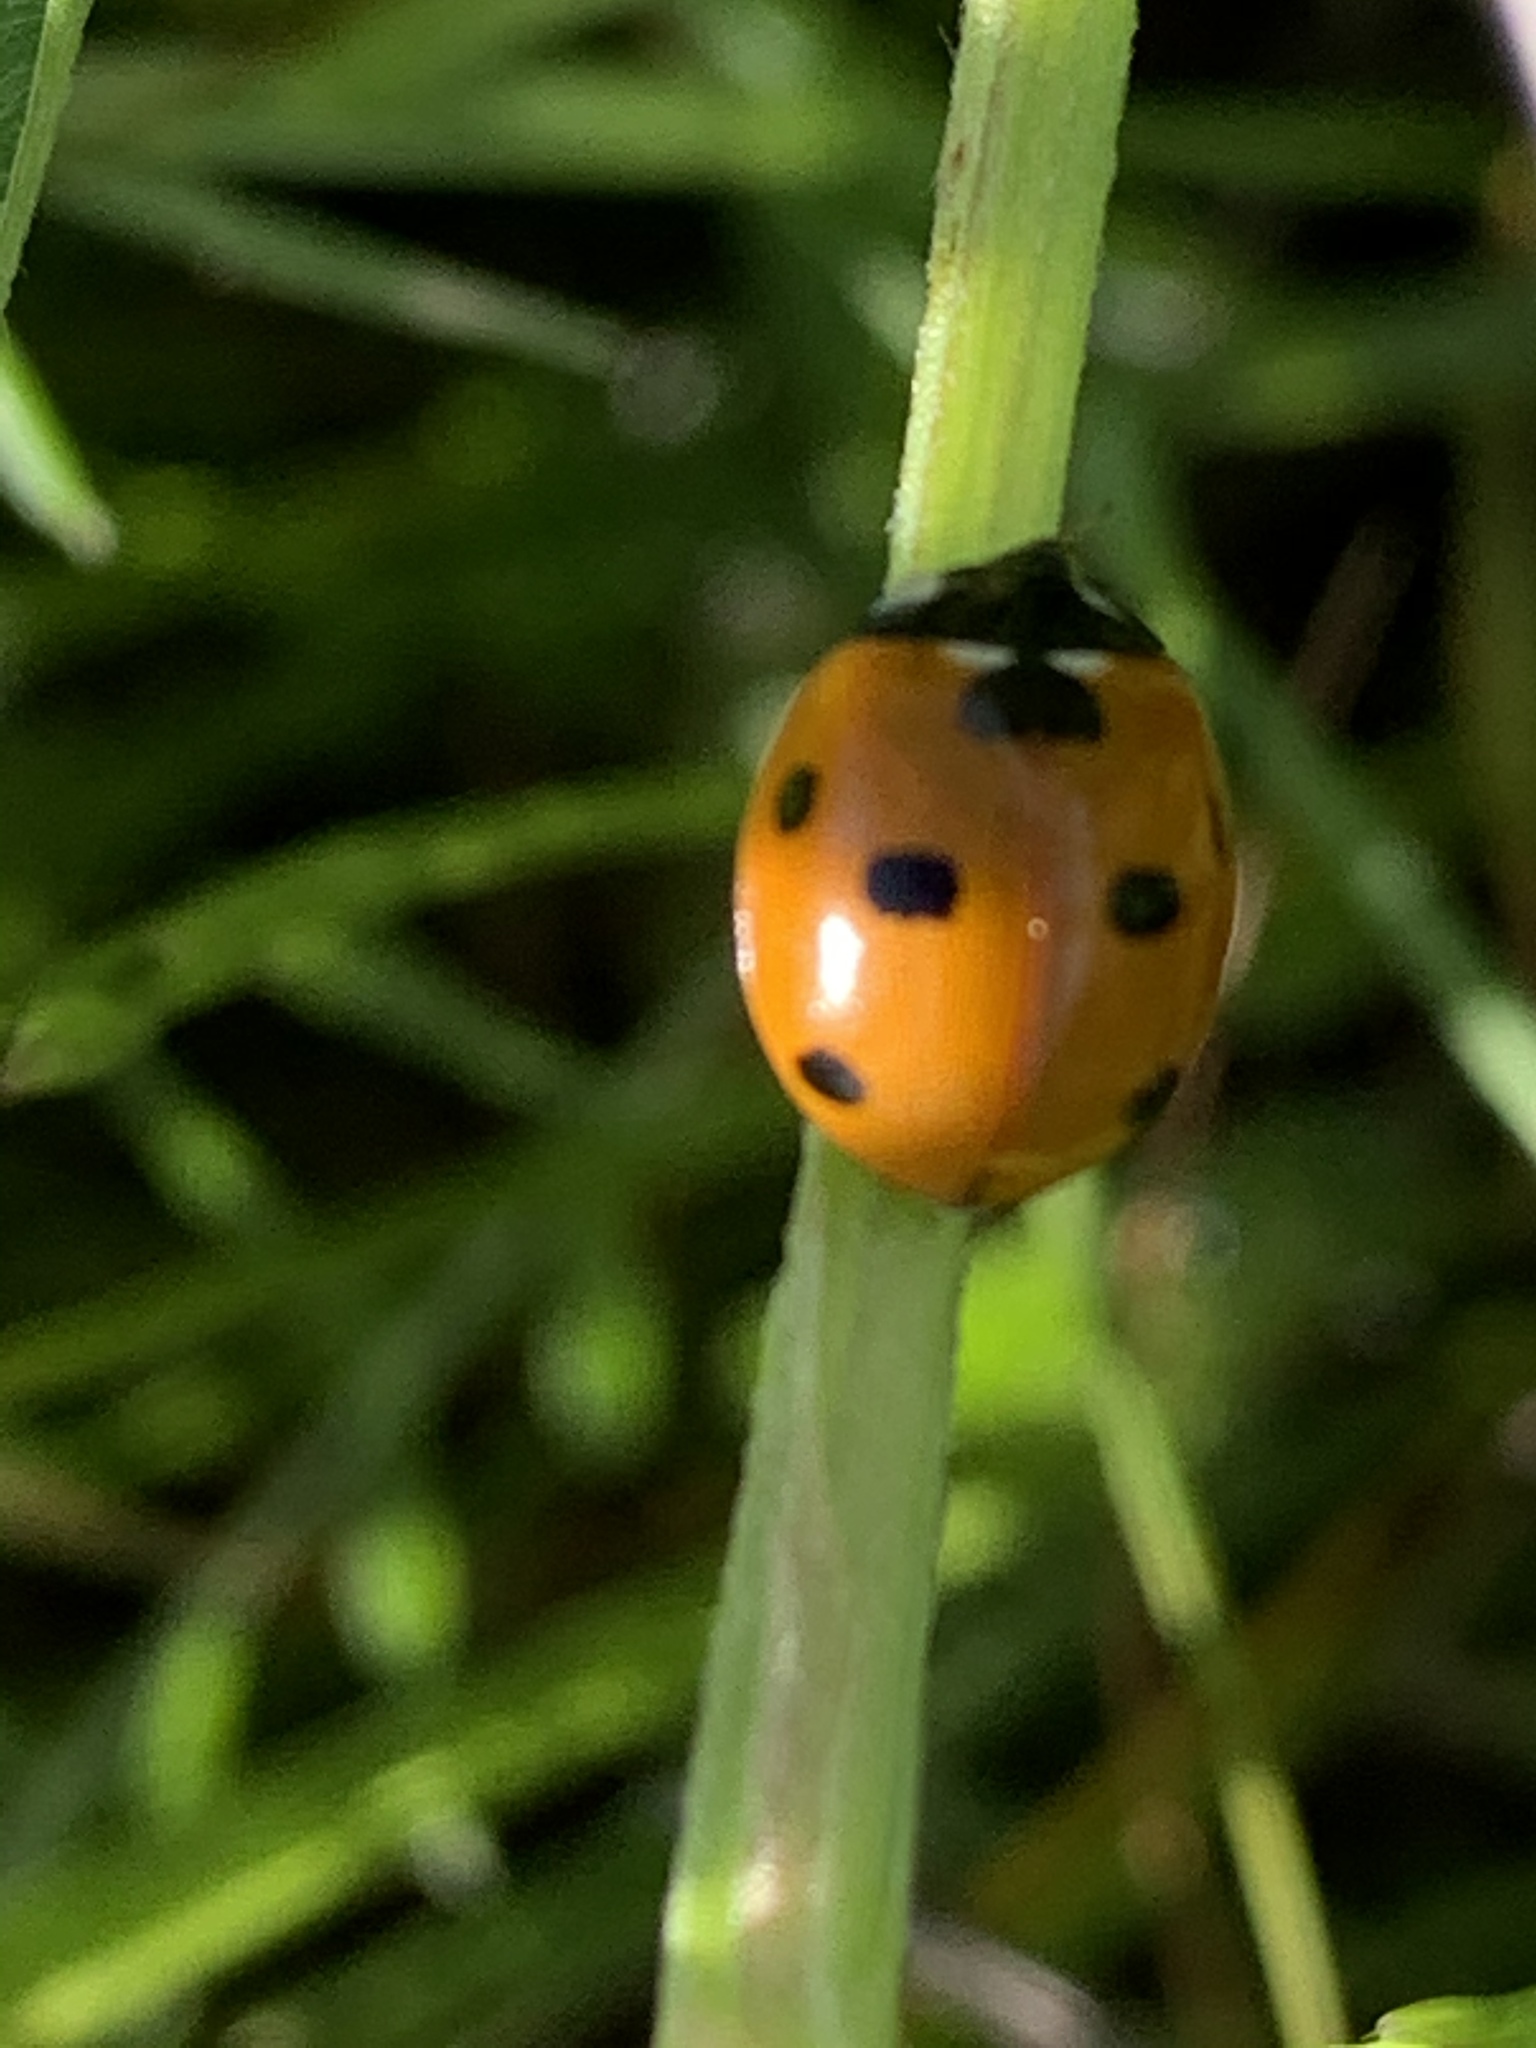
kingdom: Animalia
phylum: Arthropoda
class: Insecta
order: Coleoptera
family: Coccinellidae
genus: Coccinella
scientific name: Coccinella septempunctata
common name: Sevenspotted lady beetle
